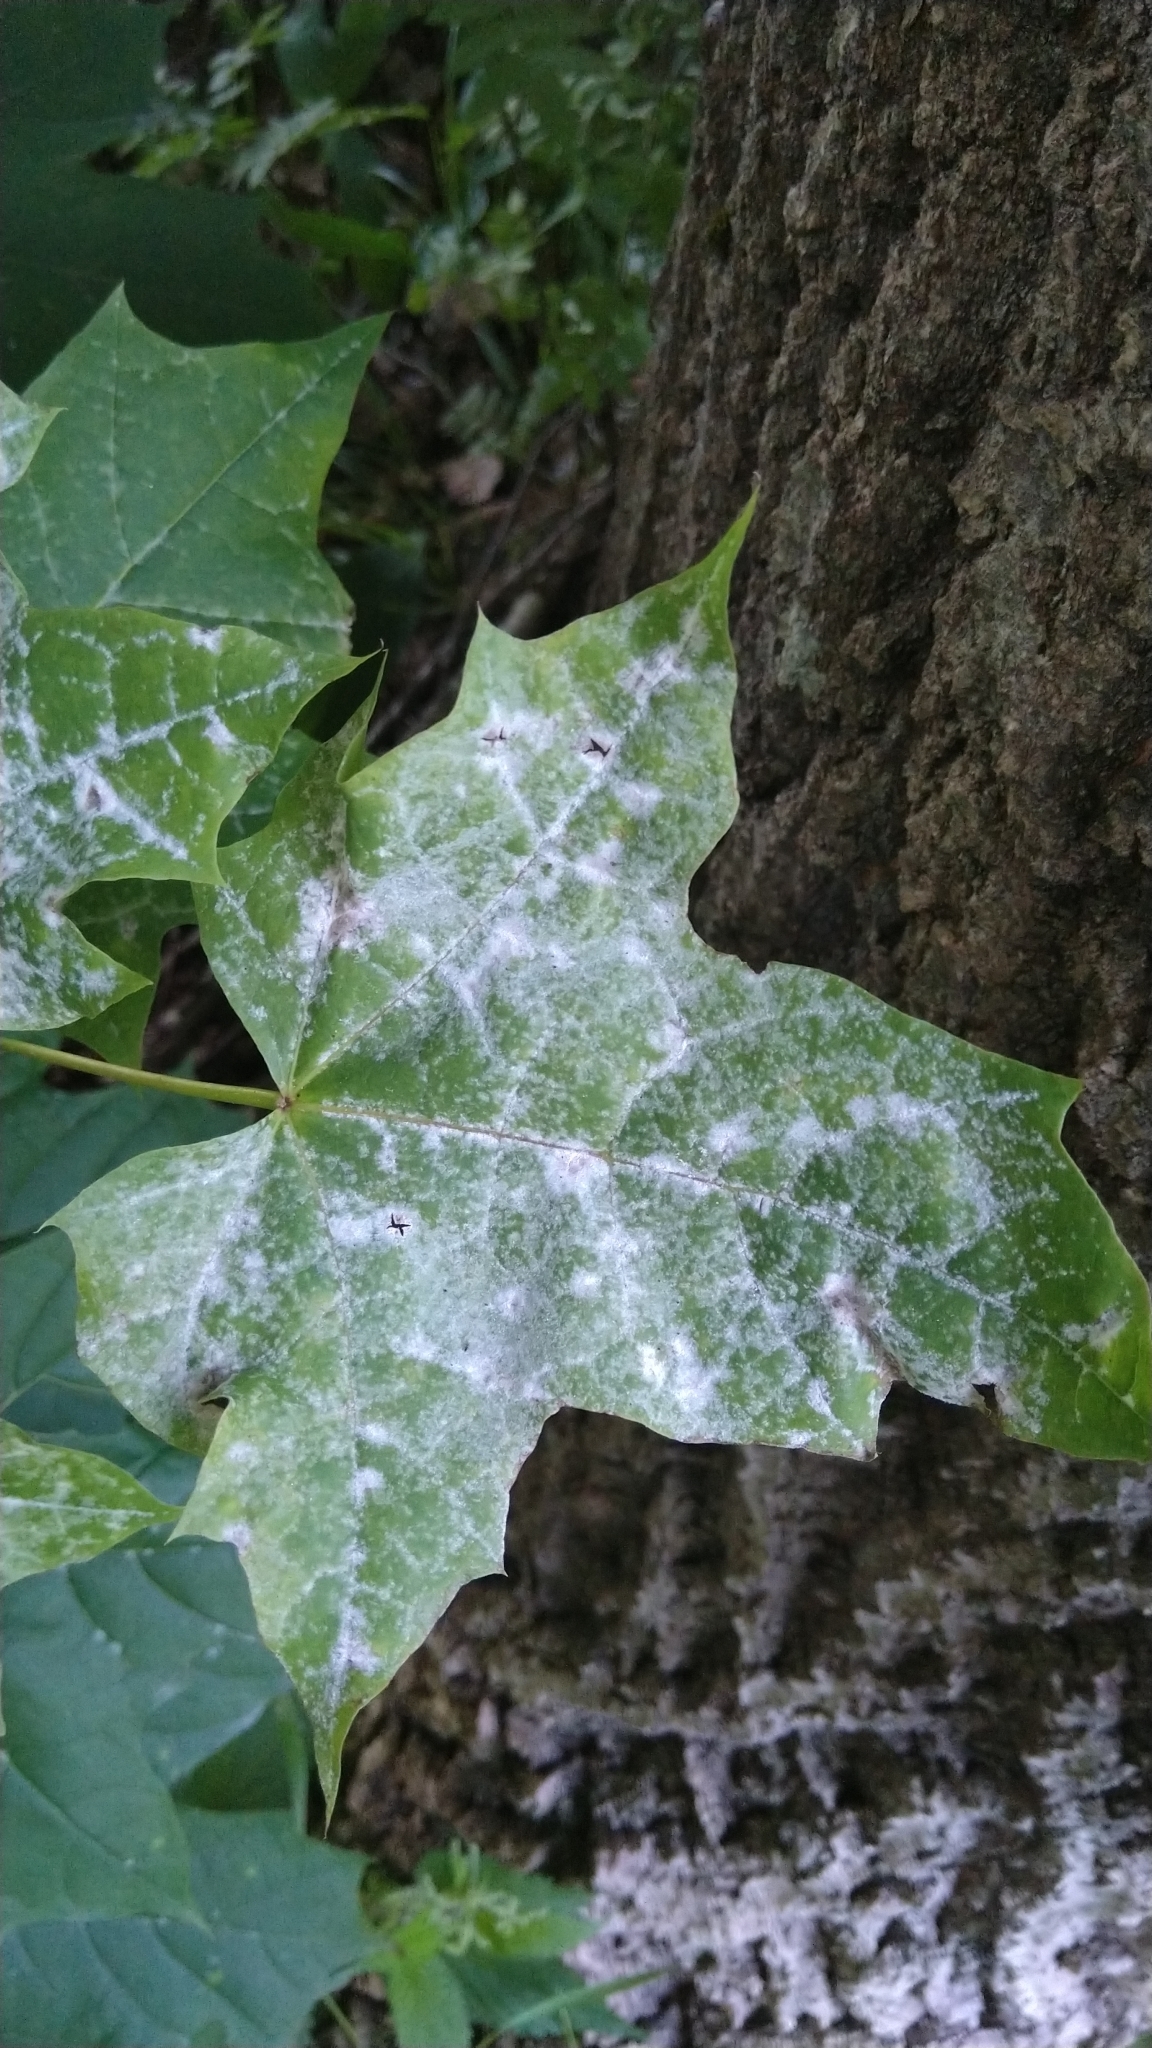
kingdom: Fungi
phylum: Ascomycota
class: Leotiomycetes
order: Helotiales
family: Erysiphaceae
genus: Sawadaea
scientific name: Sawadaea tulasnei
